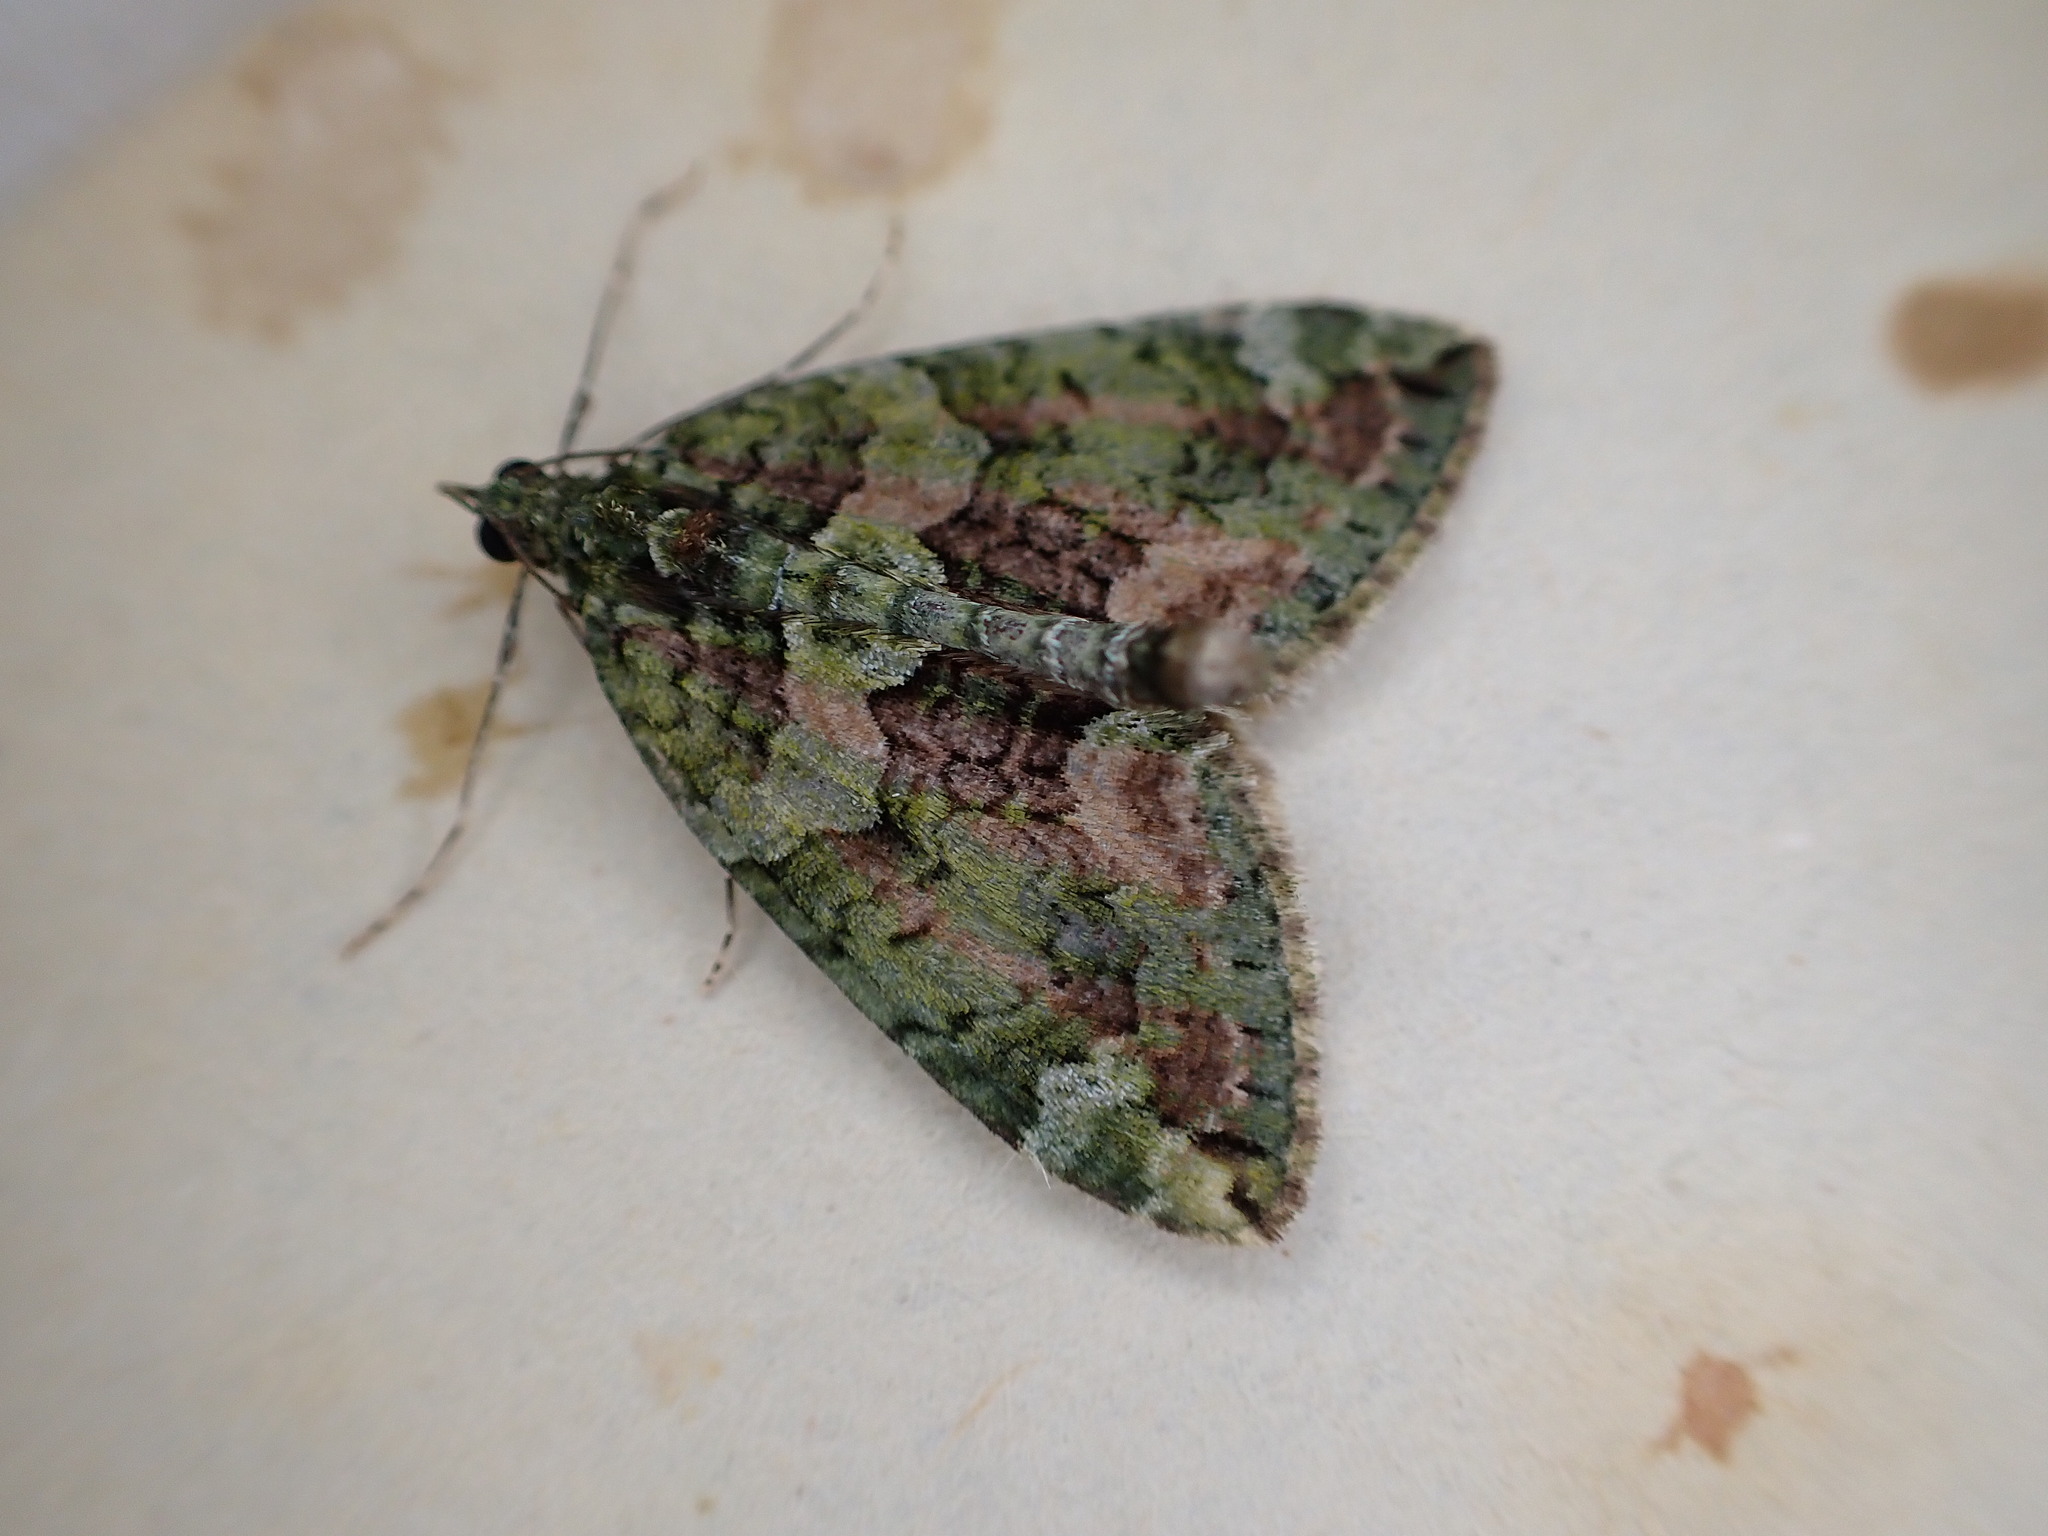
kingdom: Animalia
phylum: Arthropoda
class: Insecta
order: Lepidoptera
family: Geometridae
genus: Chloroclysta
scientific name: Chloroclysta siterata
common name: Red-green carpet
